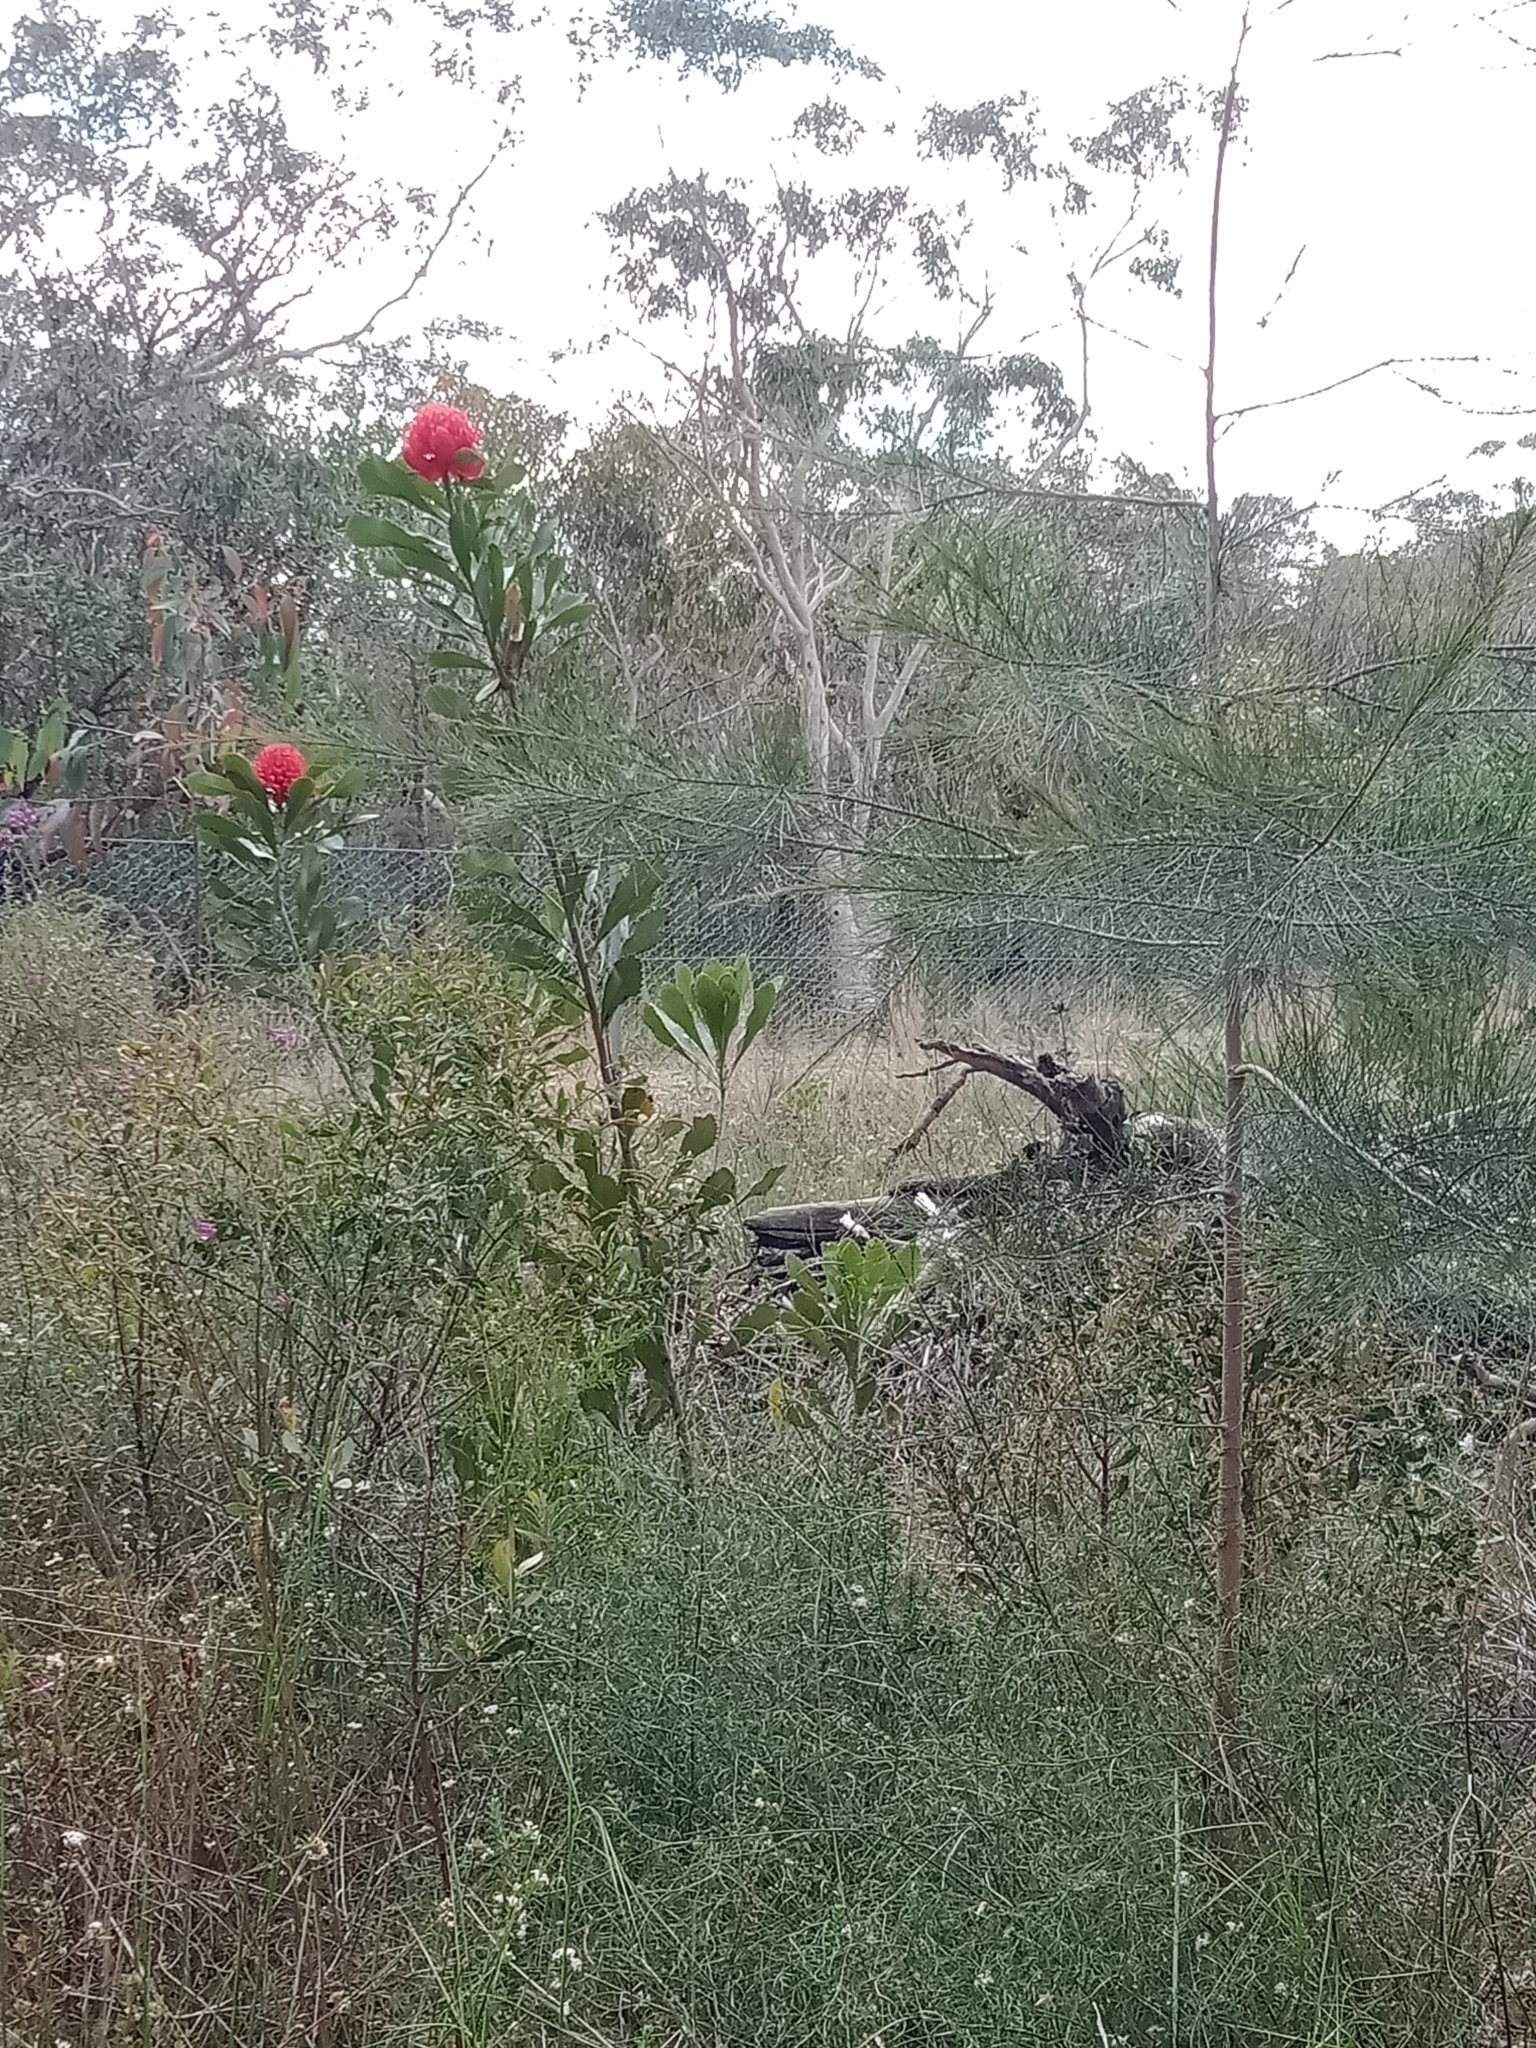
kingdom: Plantae
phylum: Tracheophyta
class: Magnoliopsida
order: Proteales
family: Proteaceae
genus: Telopea
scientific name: Telopea speciosissima
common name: New south wales waratah
